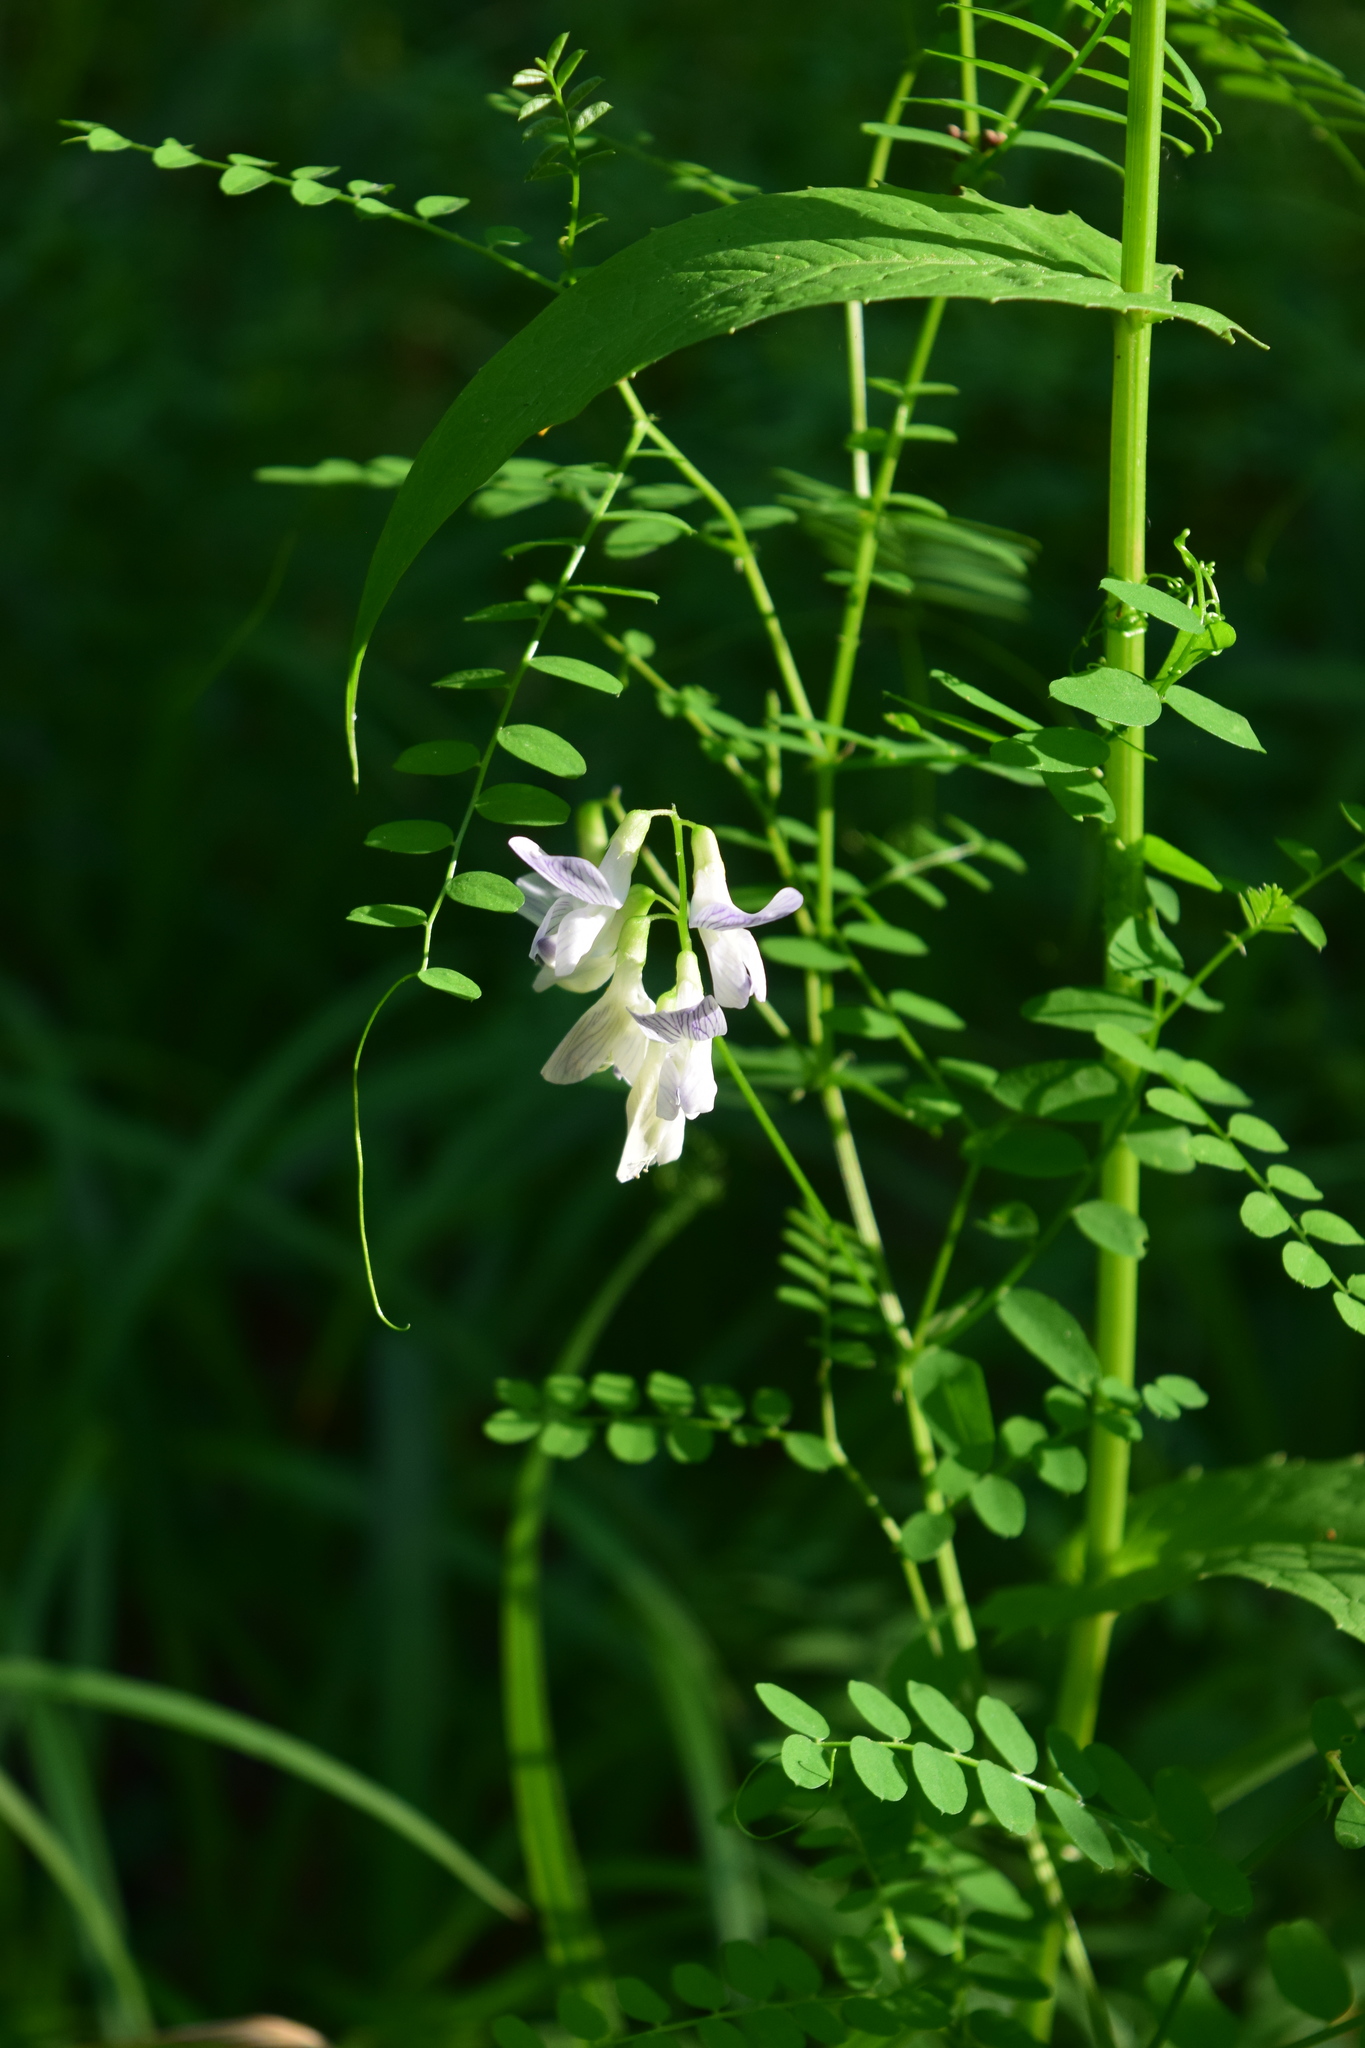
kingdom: Plantae
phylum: Tracheophyta
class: Magnoliopsida
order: Fabales
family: Fabaceae
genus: Vicia
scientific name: Vicia sylvatica
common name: Wood vetch
